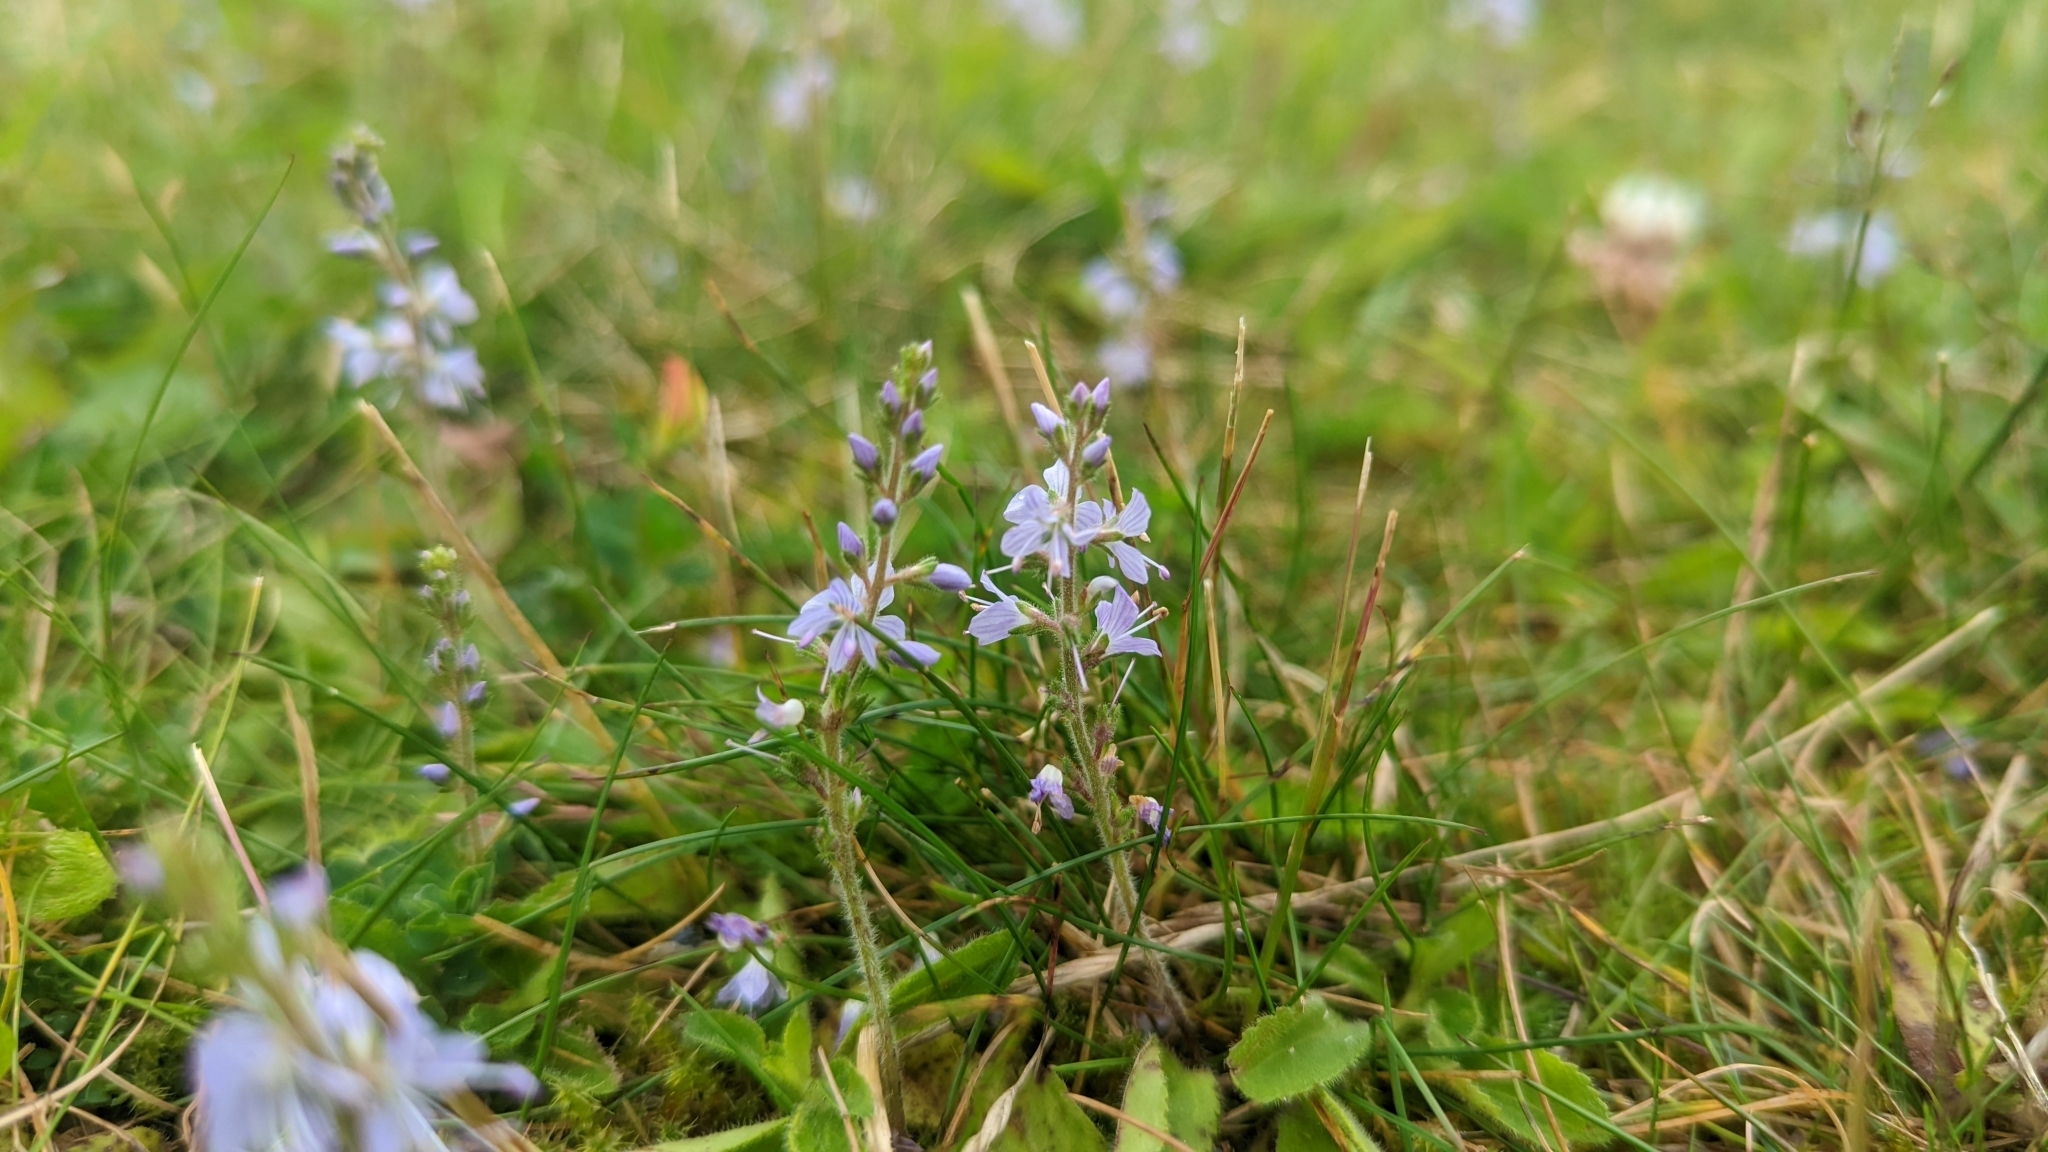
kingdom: Plantae
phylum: Tracheophyta
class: Magnoliopsida
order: Lamiales
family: Plantaginaceae
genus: Veronica
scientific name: Veronica officinalis
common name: Common speedwell
